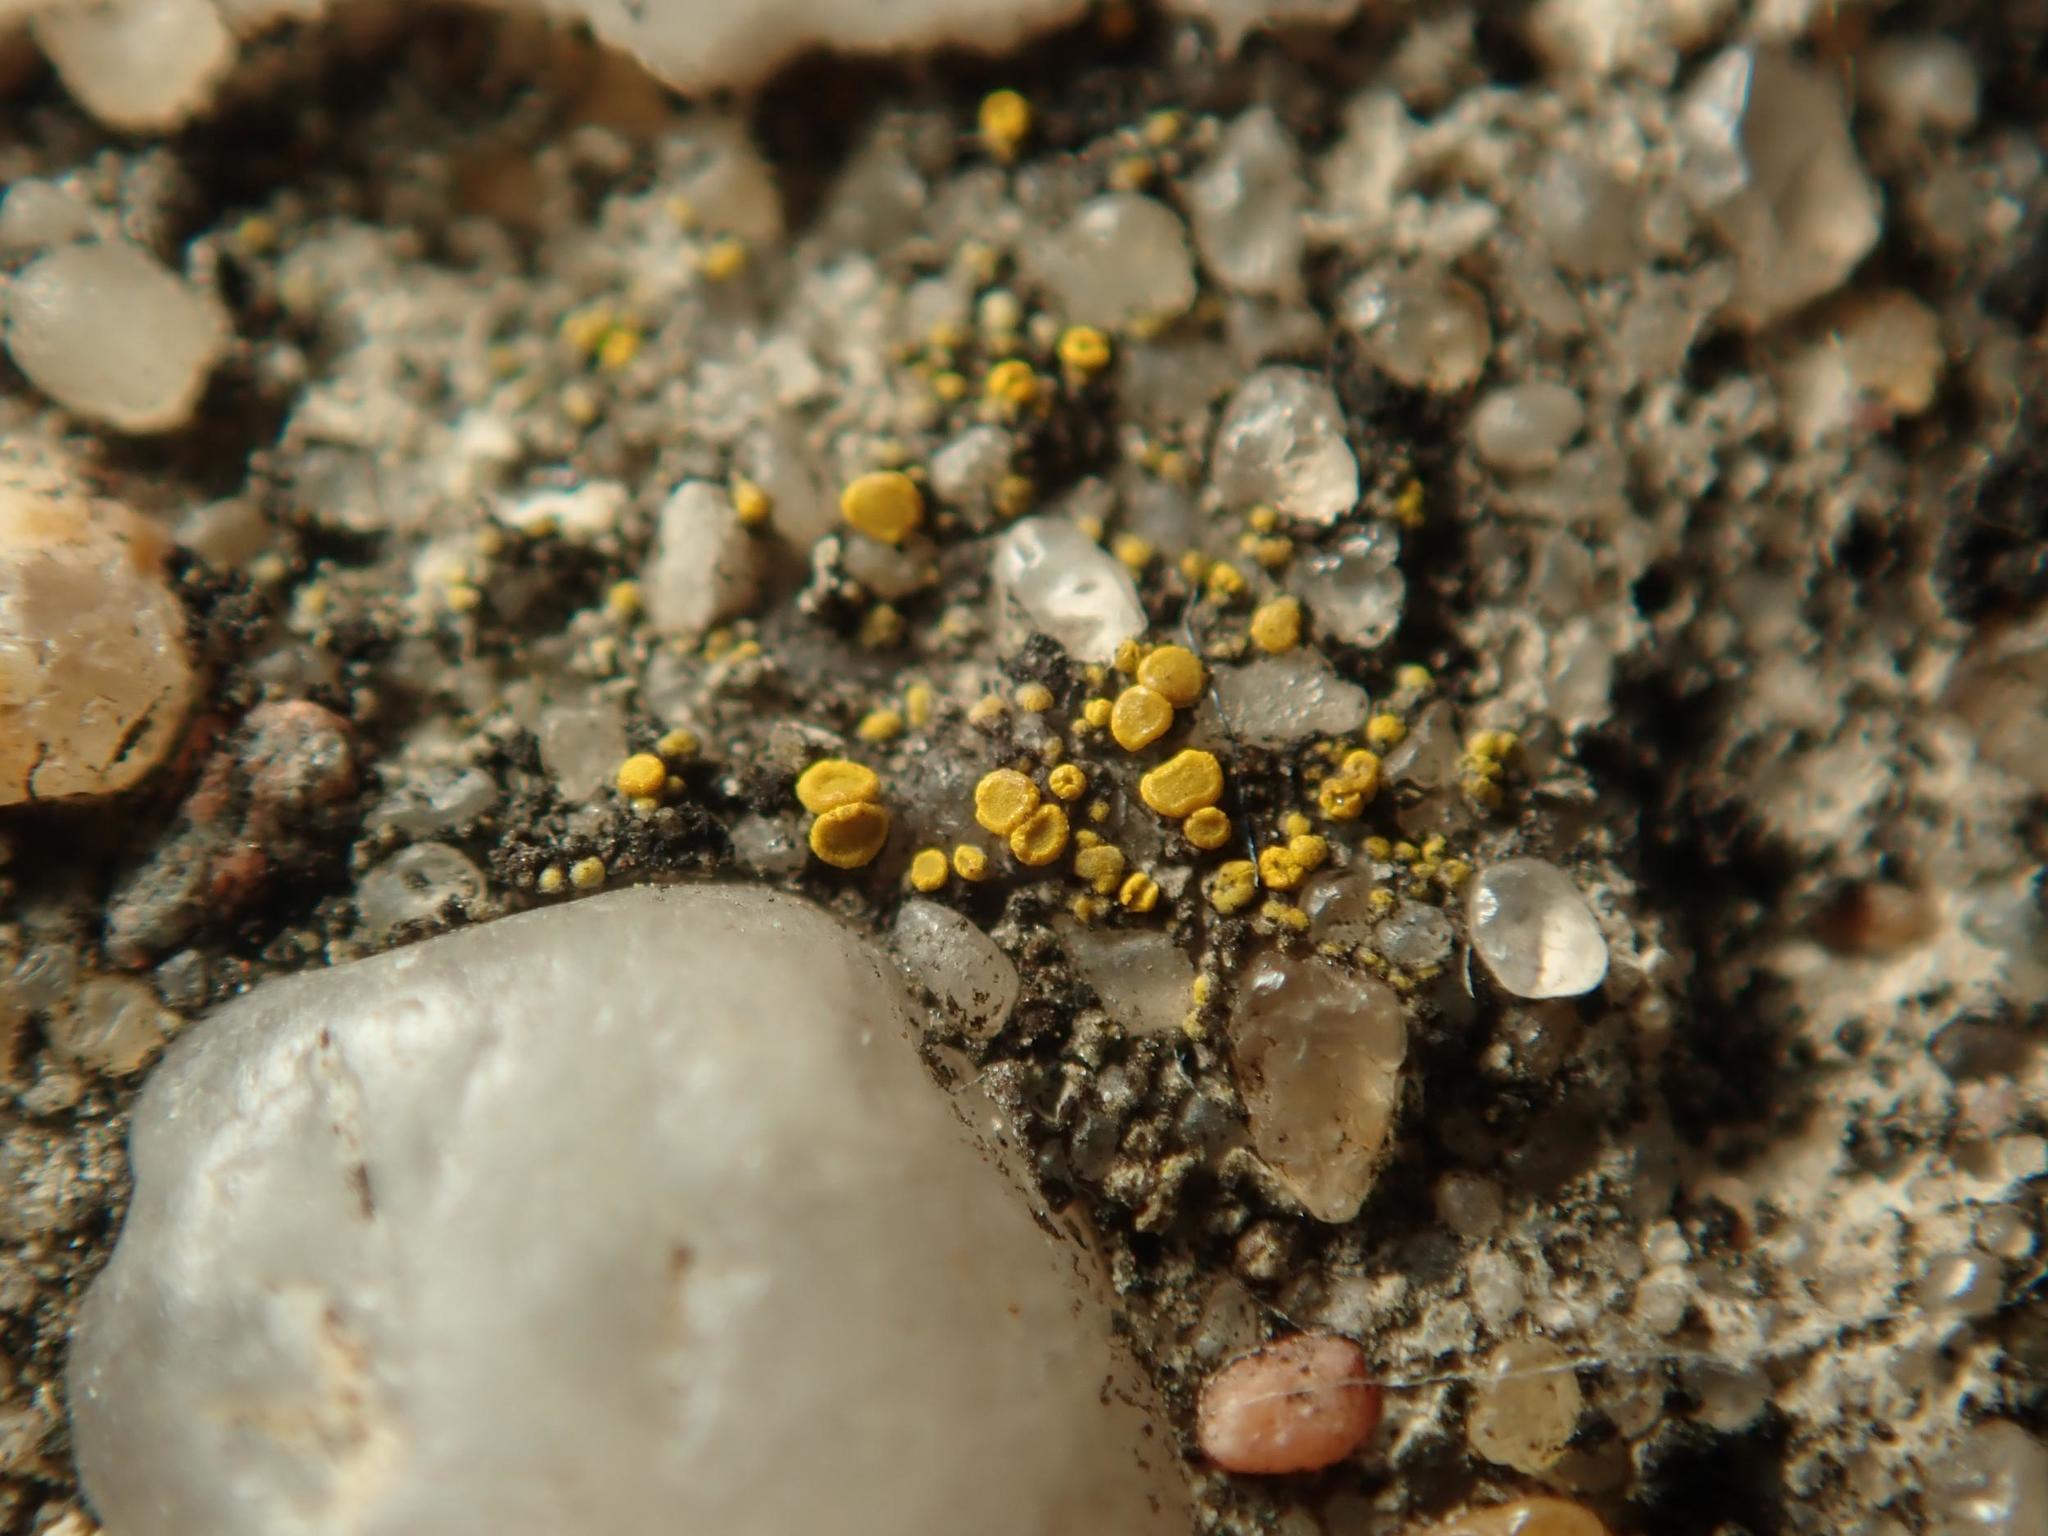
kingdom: Fungi
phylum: Ascomycota
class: Candelariomycetes
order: Candelariales
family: Candelariaceae
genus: Candelariella
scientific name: Candelariella aurella
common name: Hidden goldspeck lichen
